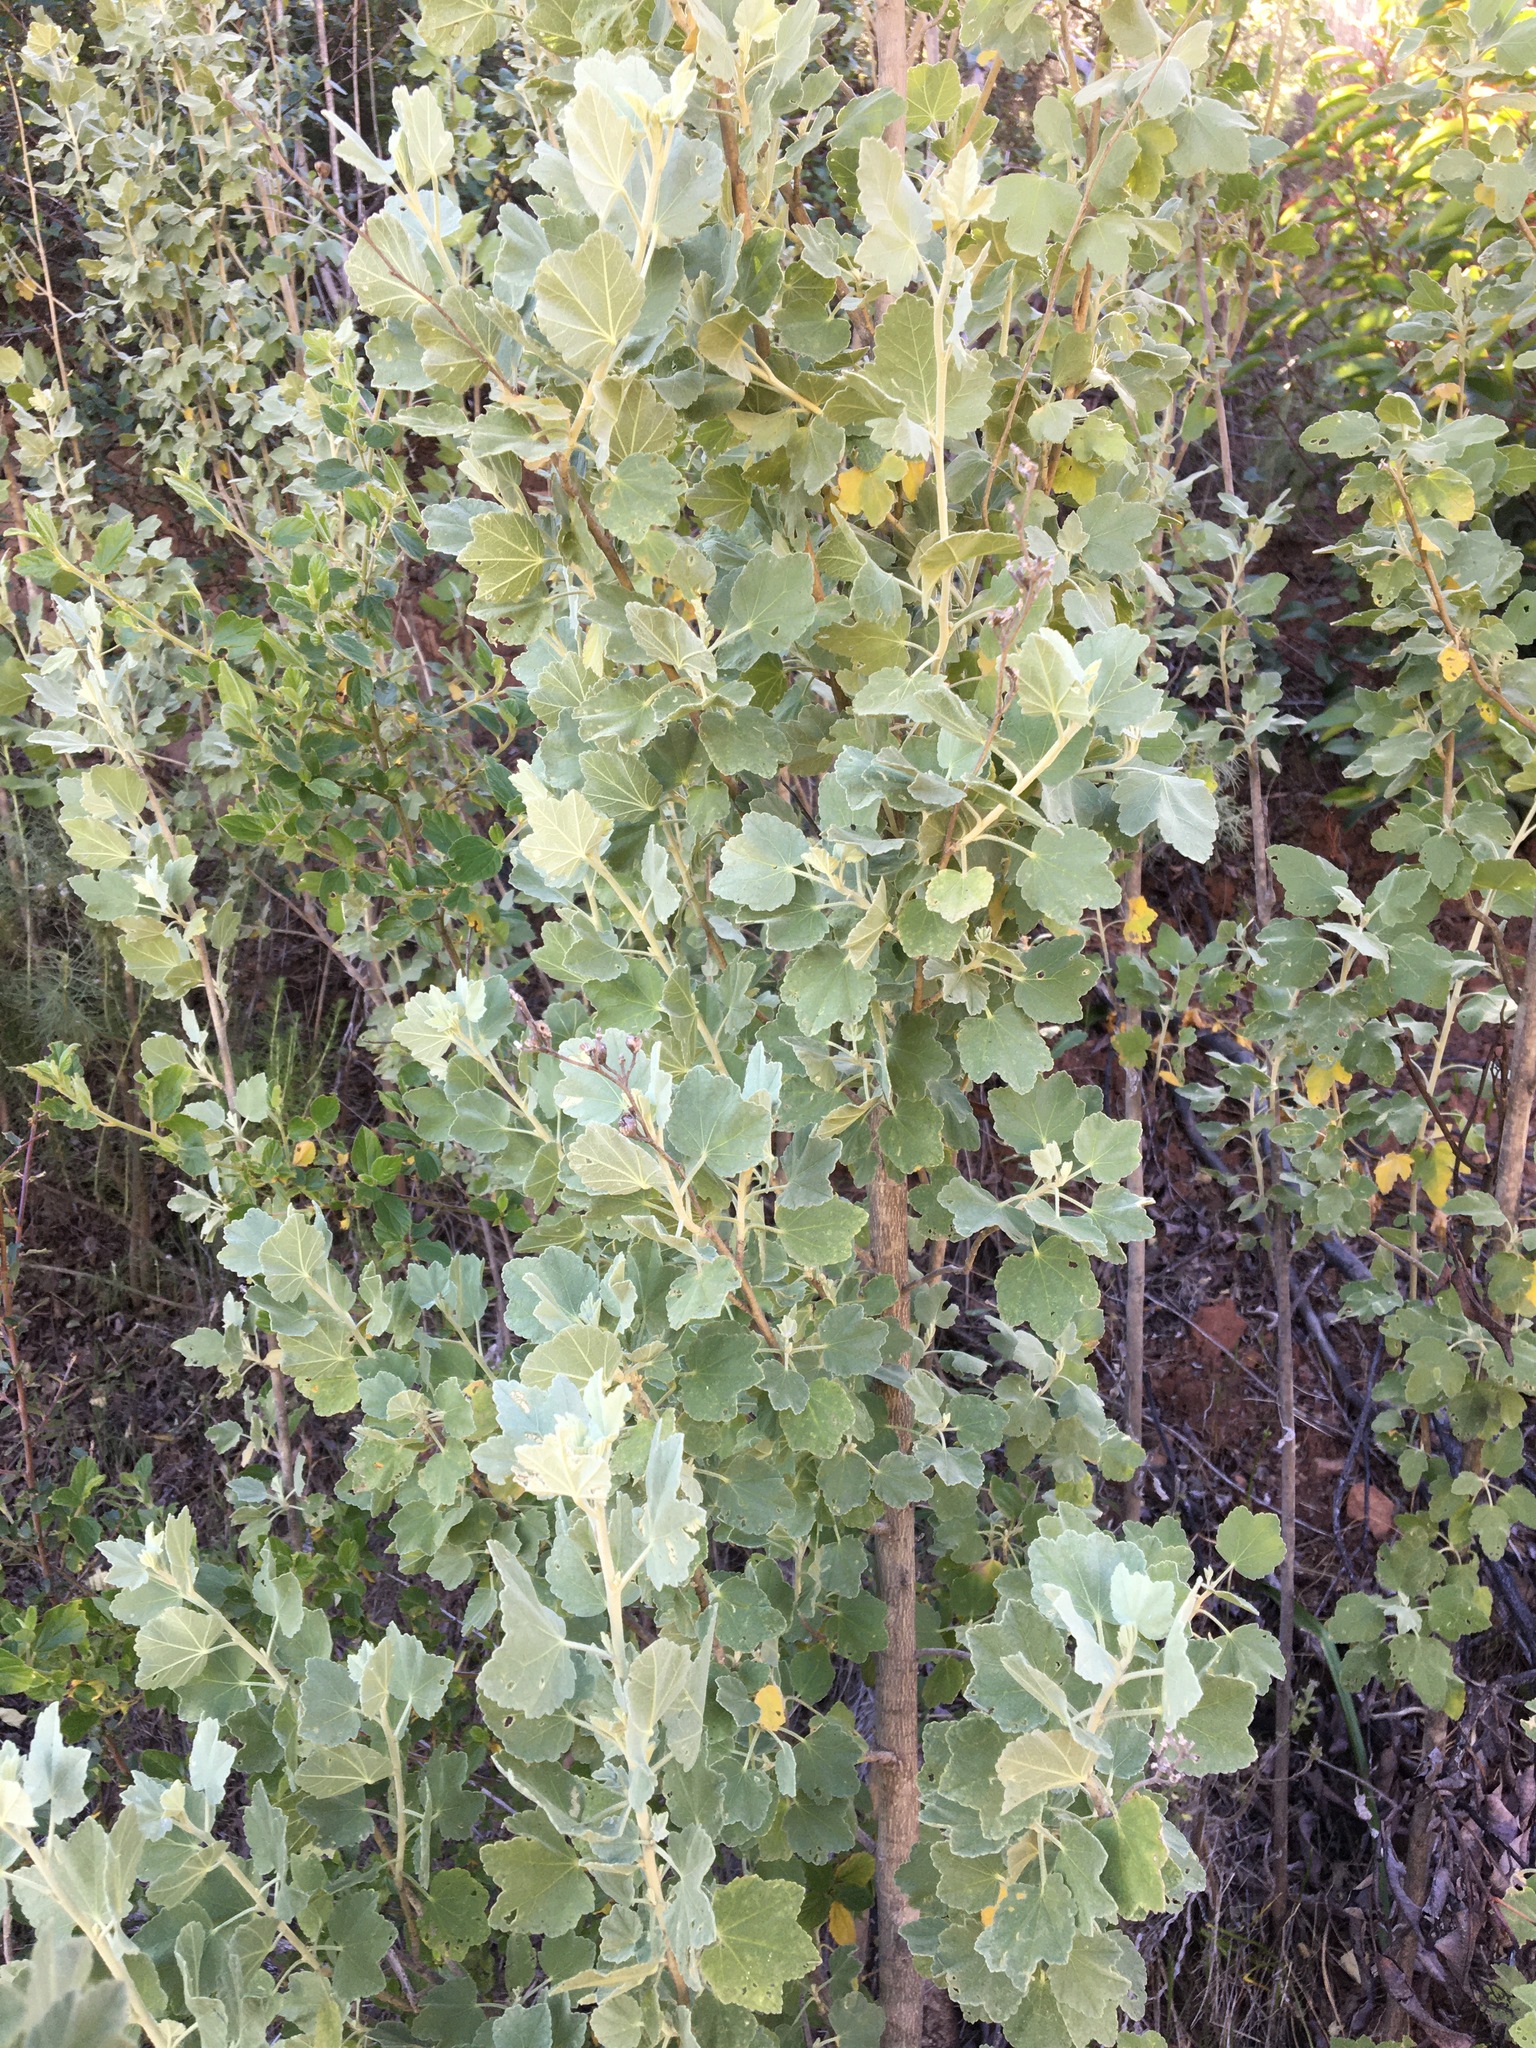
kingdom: Plantae
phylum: Tracheophyta
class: Magnoliopsida
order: Malvales
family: Malvaceae
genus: Malacothamnus
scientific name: Malacothamnus fasciculatus
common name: Sant cruz island bush-mallow
